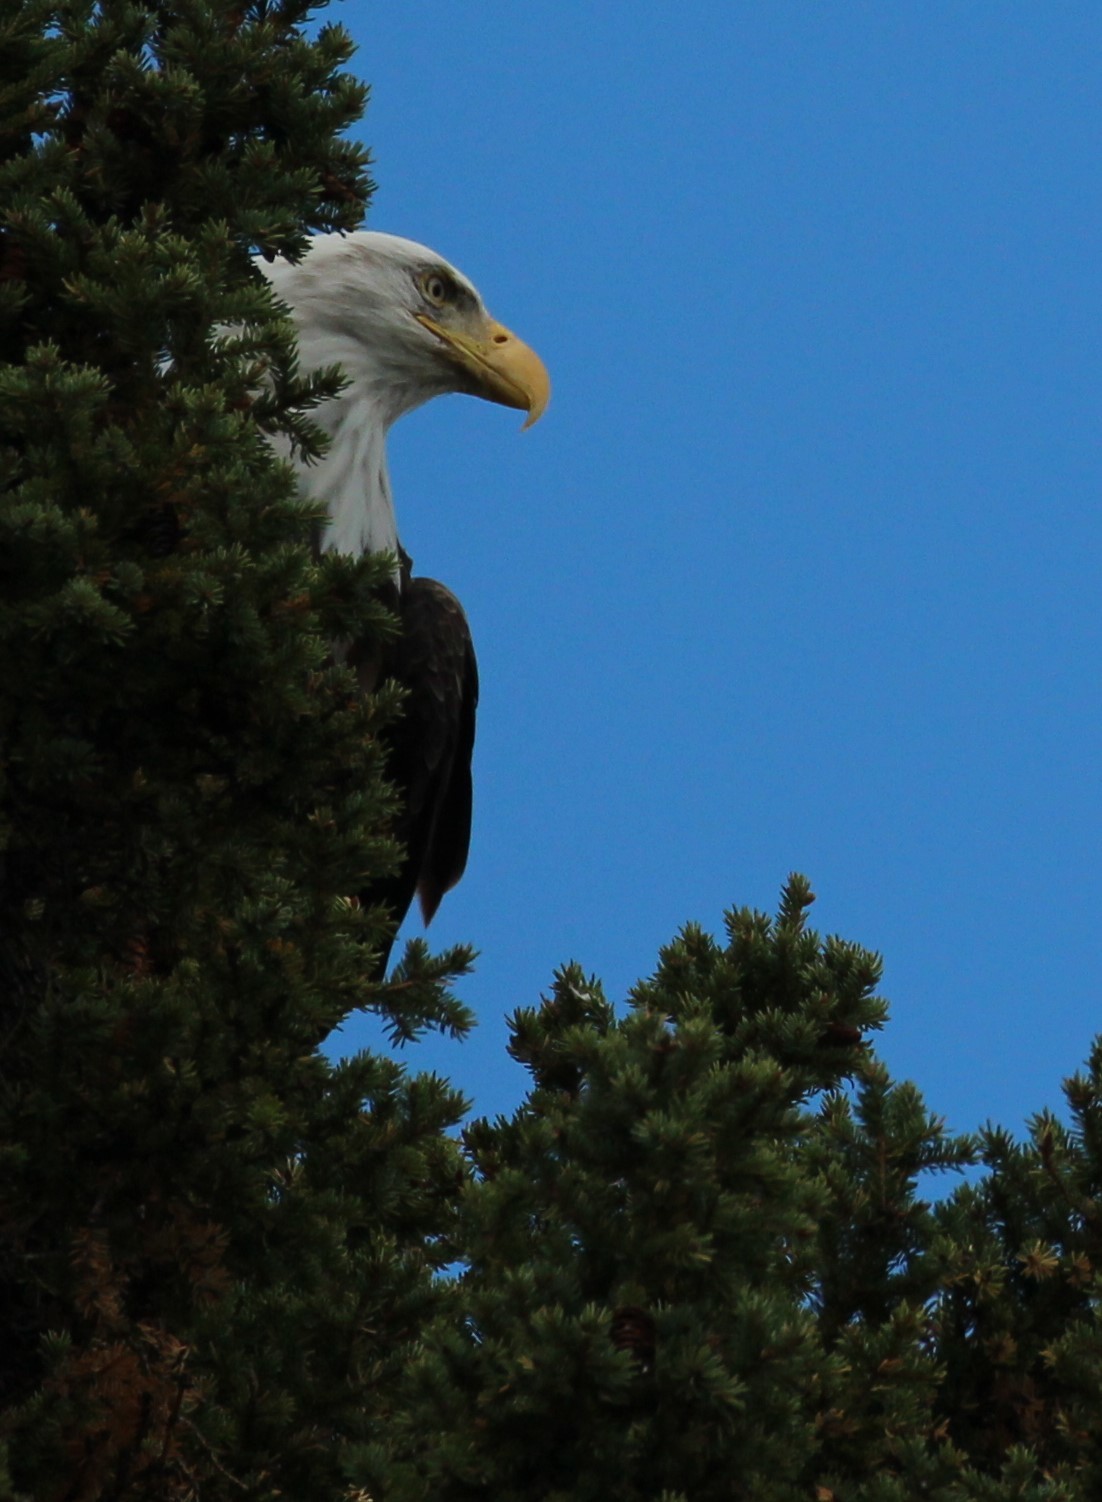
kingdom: Animalia
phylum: Chordata
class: Aves
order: Accipitriformes
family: Accipitridae
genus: Haliaeetus
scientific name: Haliaeetus leucocephalus
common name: Bald eagle
